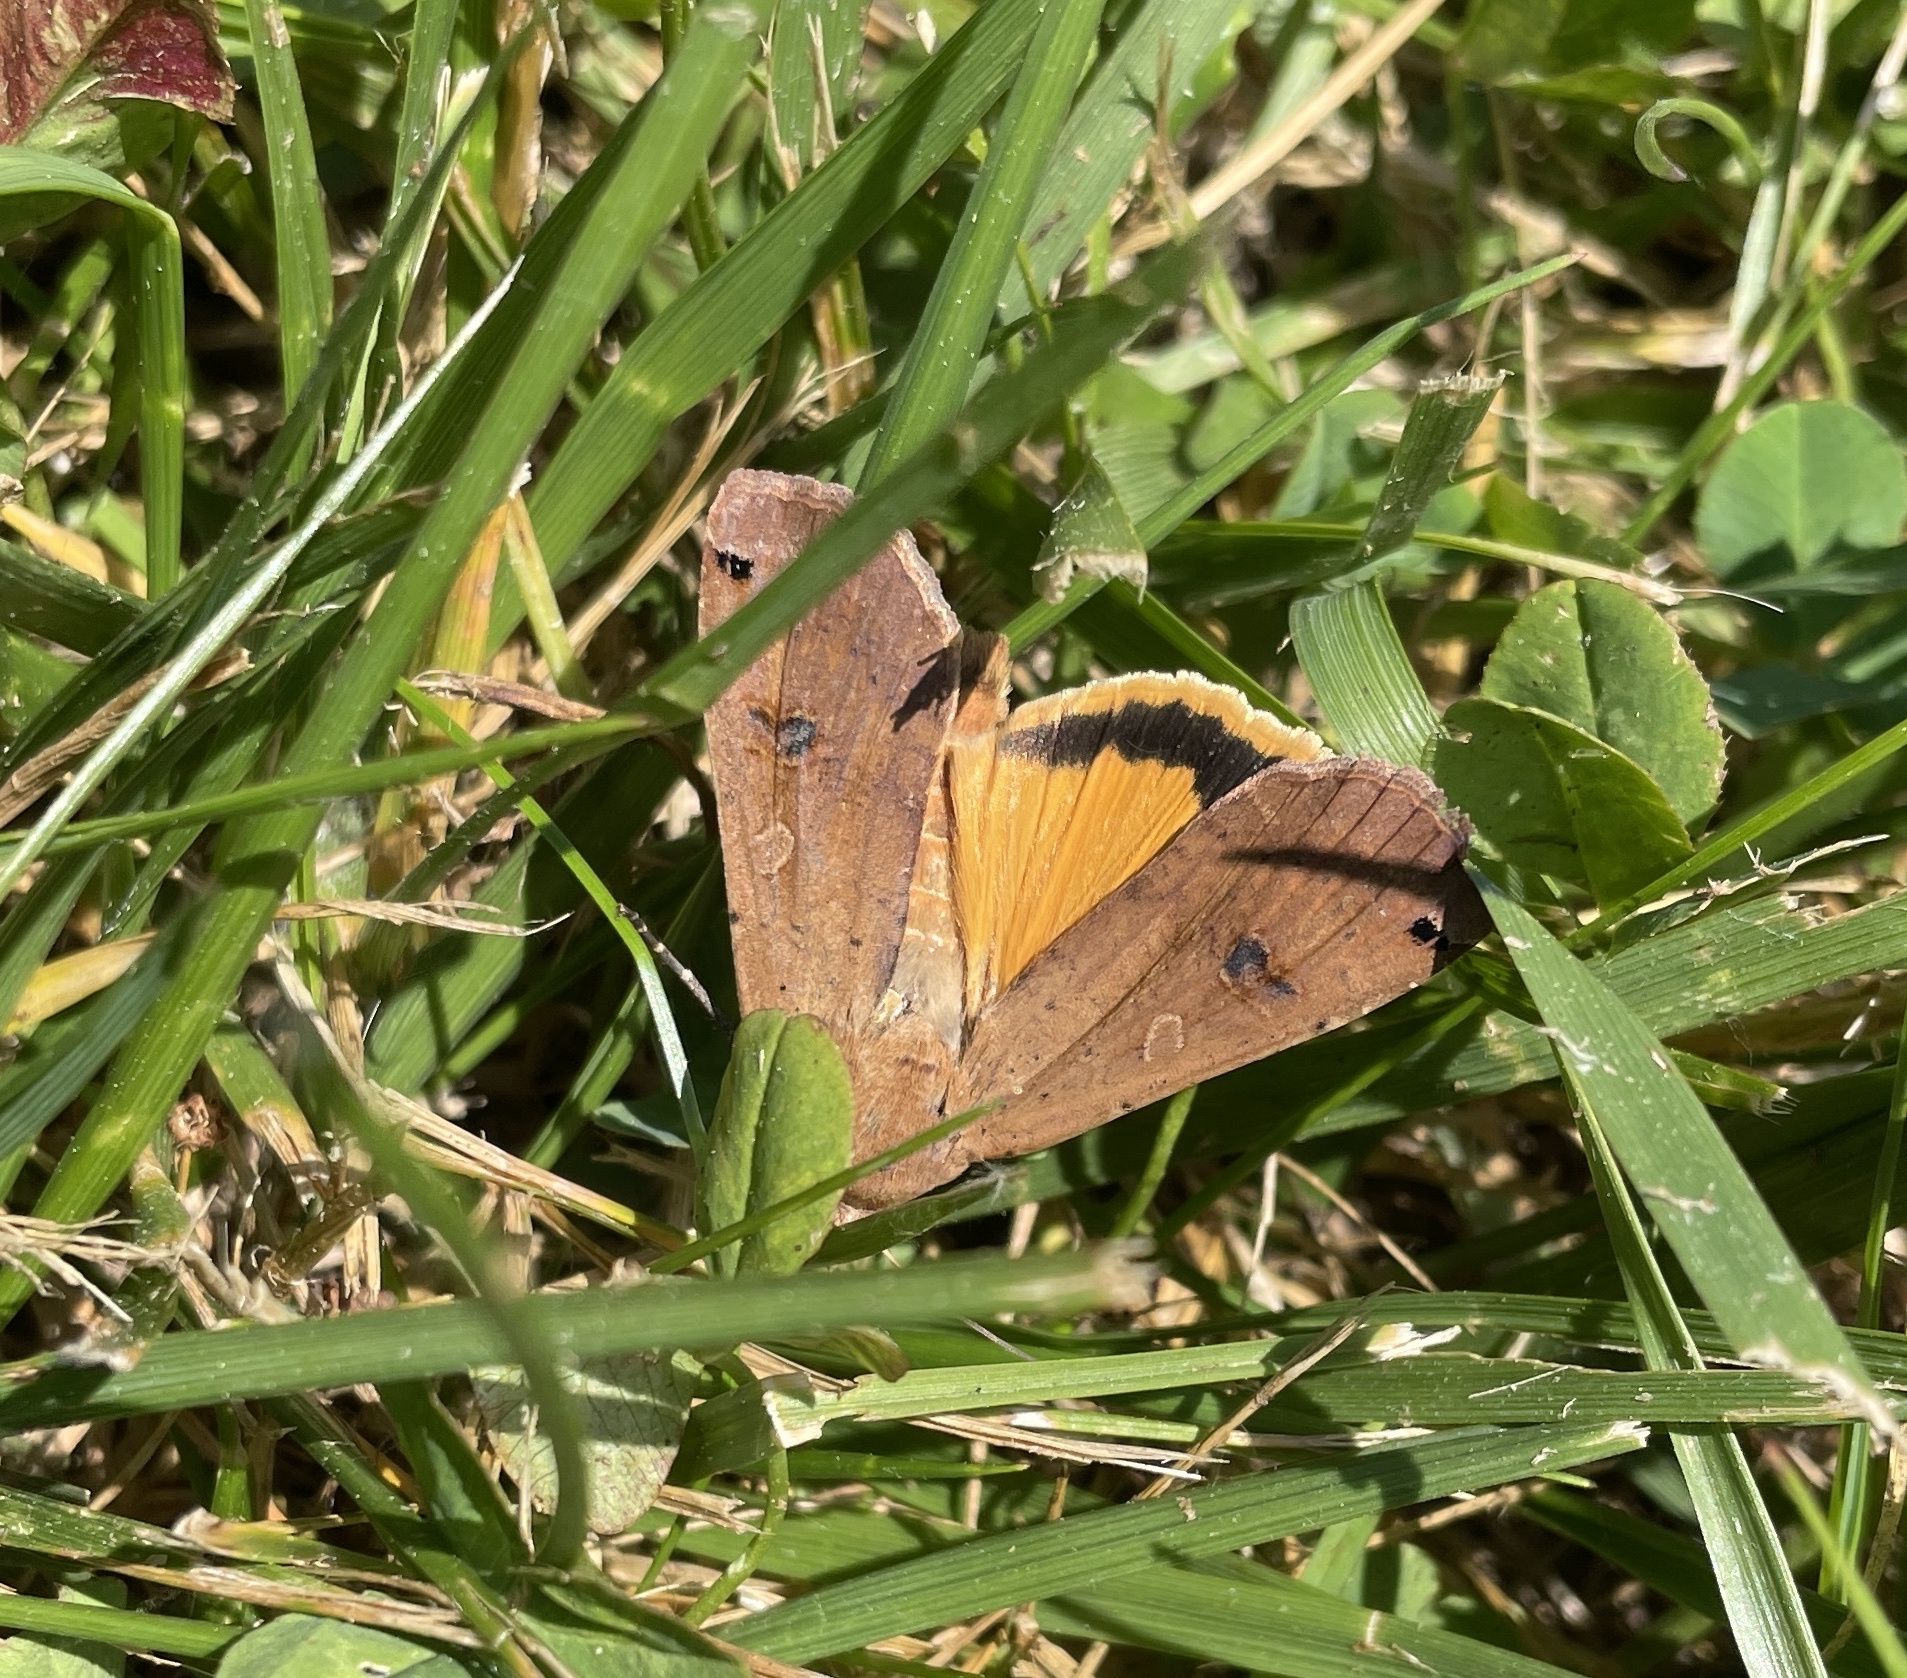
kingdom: Animalia
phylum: Arthropoda
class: Insecta
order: Lepidoptera
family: Noctuidae
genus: Noctua
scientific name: Noctua pronuba
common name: Large yellow underwing
